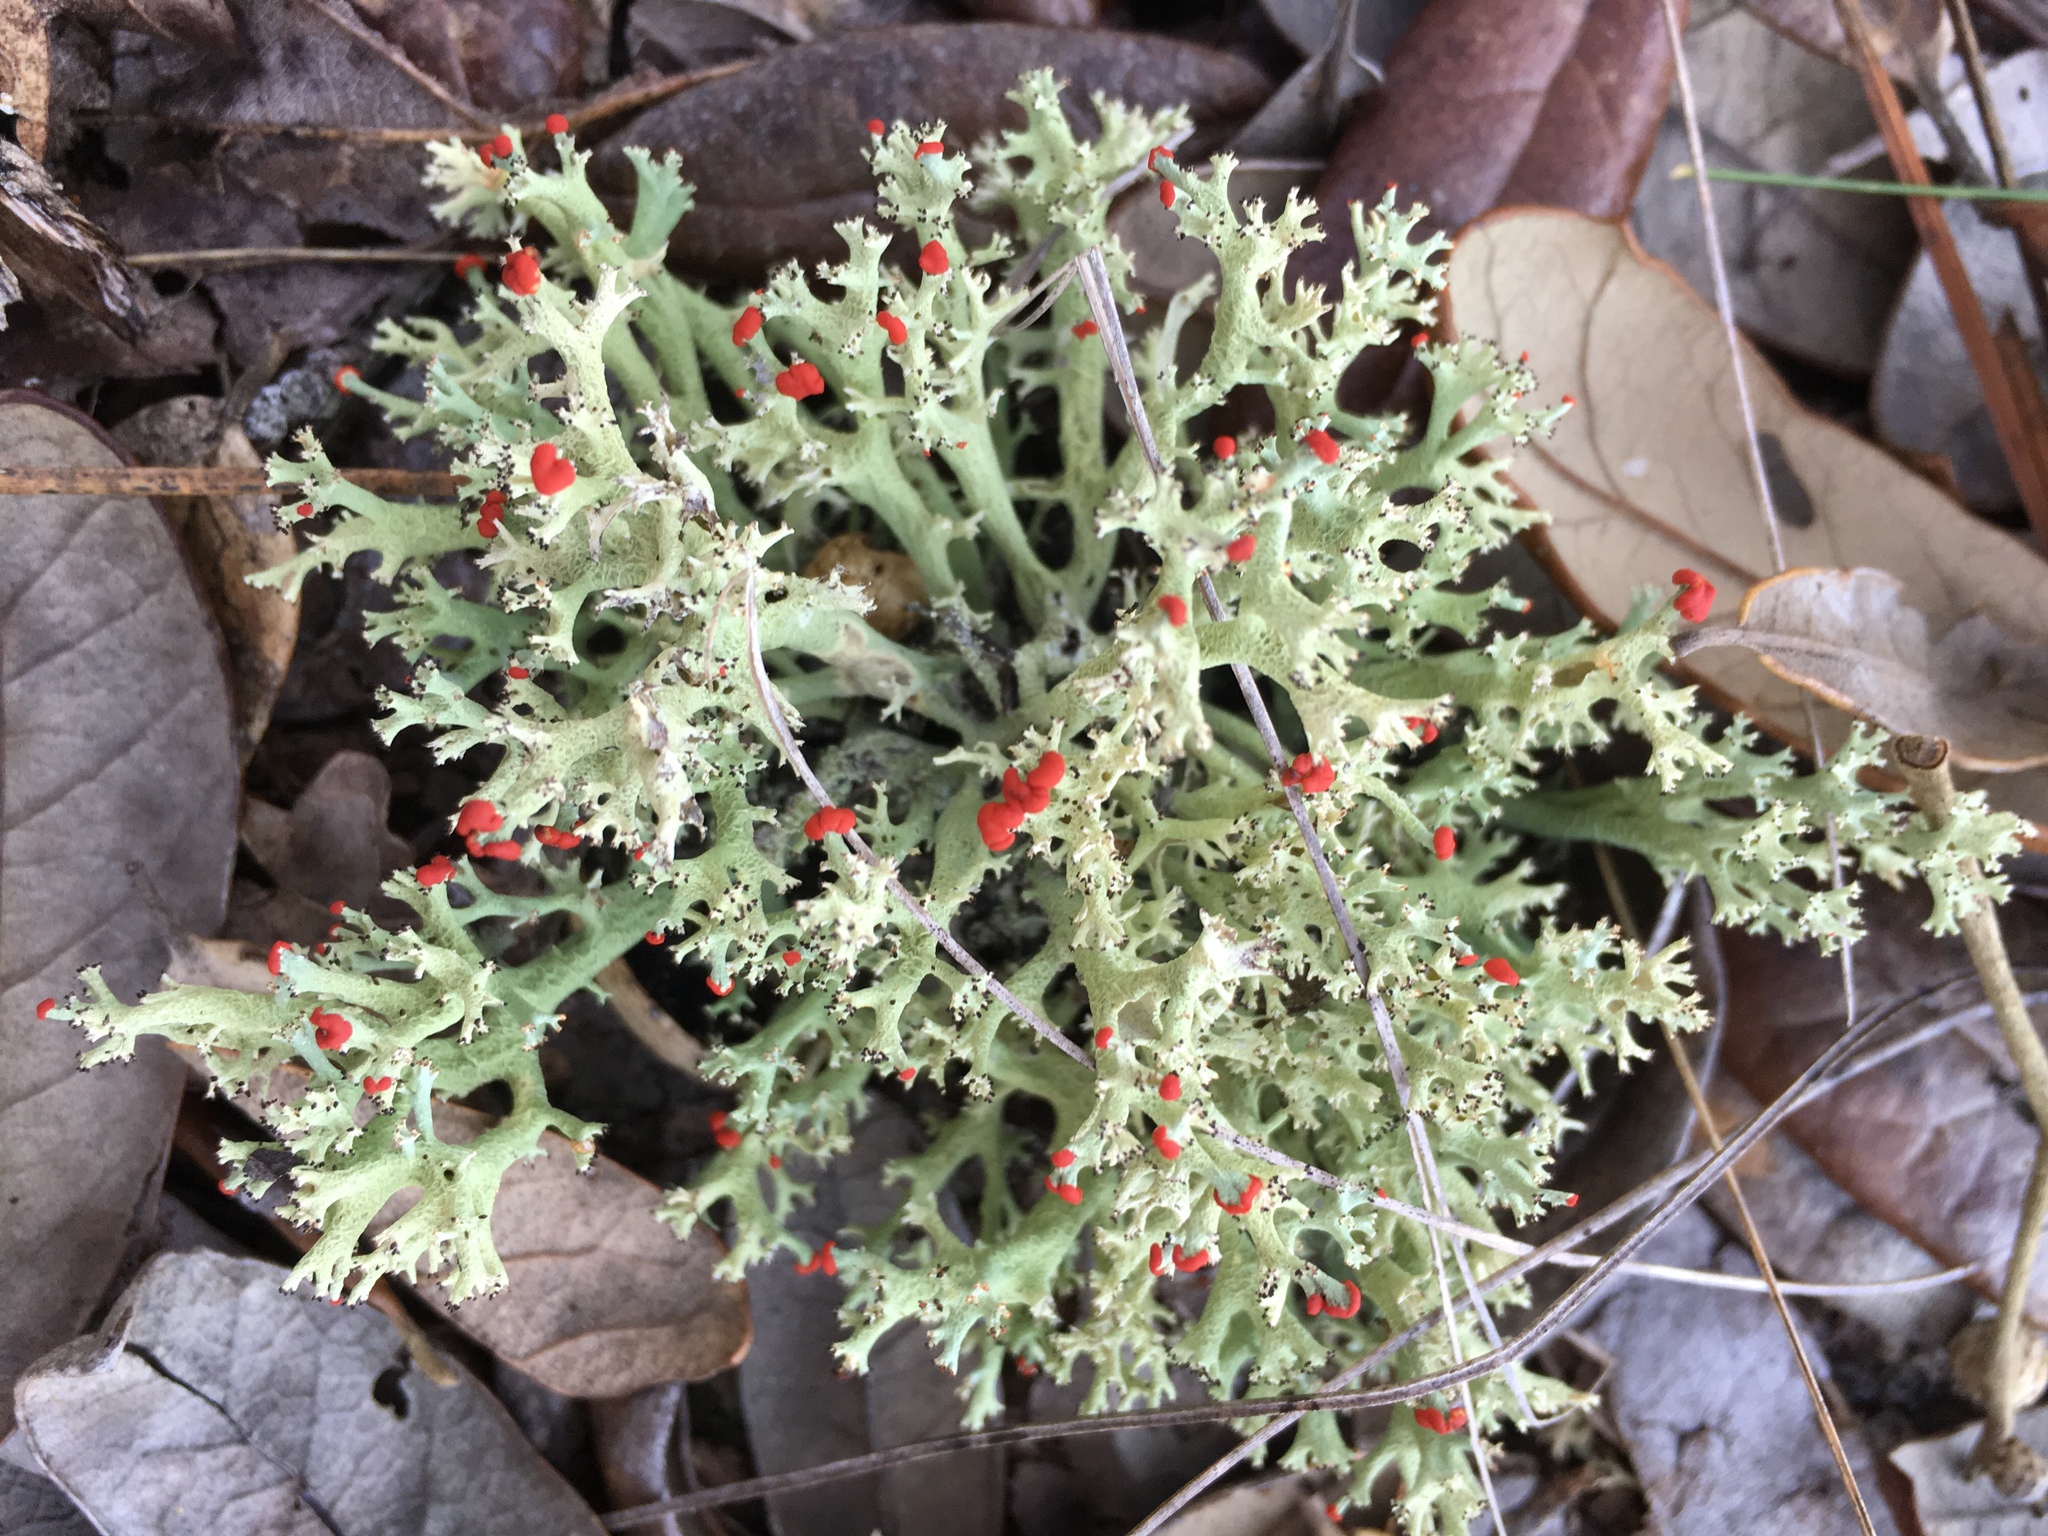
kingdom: Fungi
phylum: Ascomycota
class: Lecanoromycetes
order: Lecanorales
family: Cladoniaceae
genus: Cladonia
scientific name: Cladonia leporina
